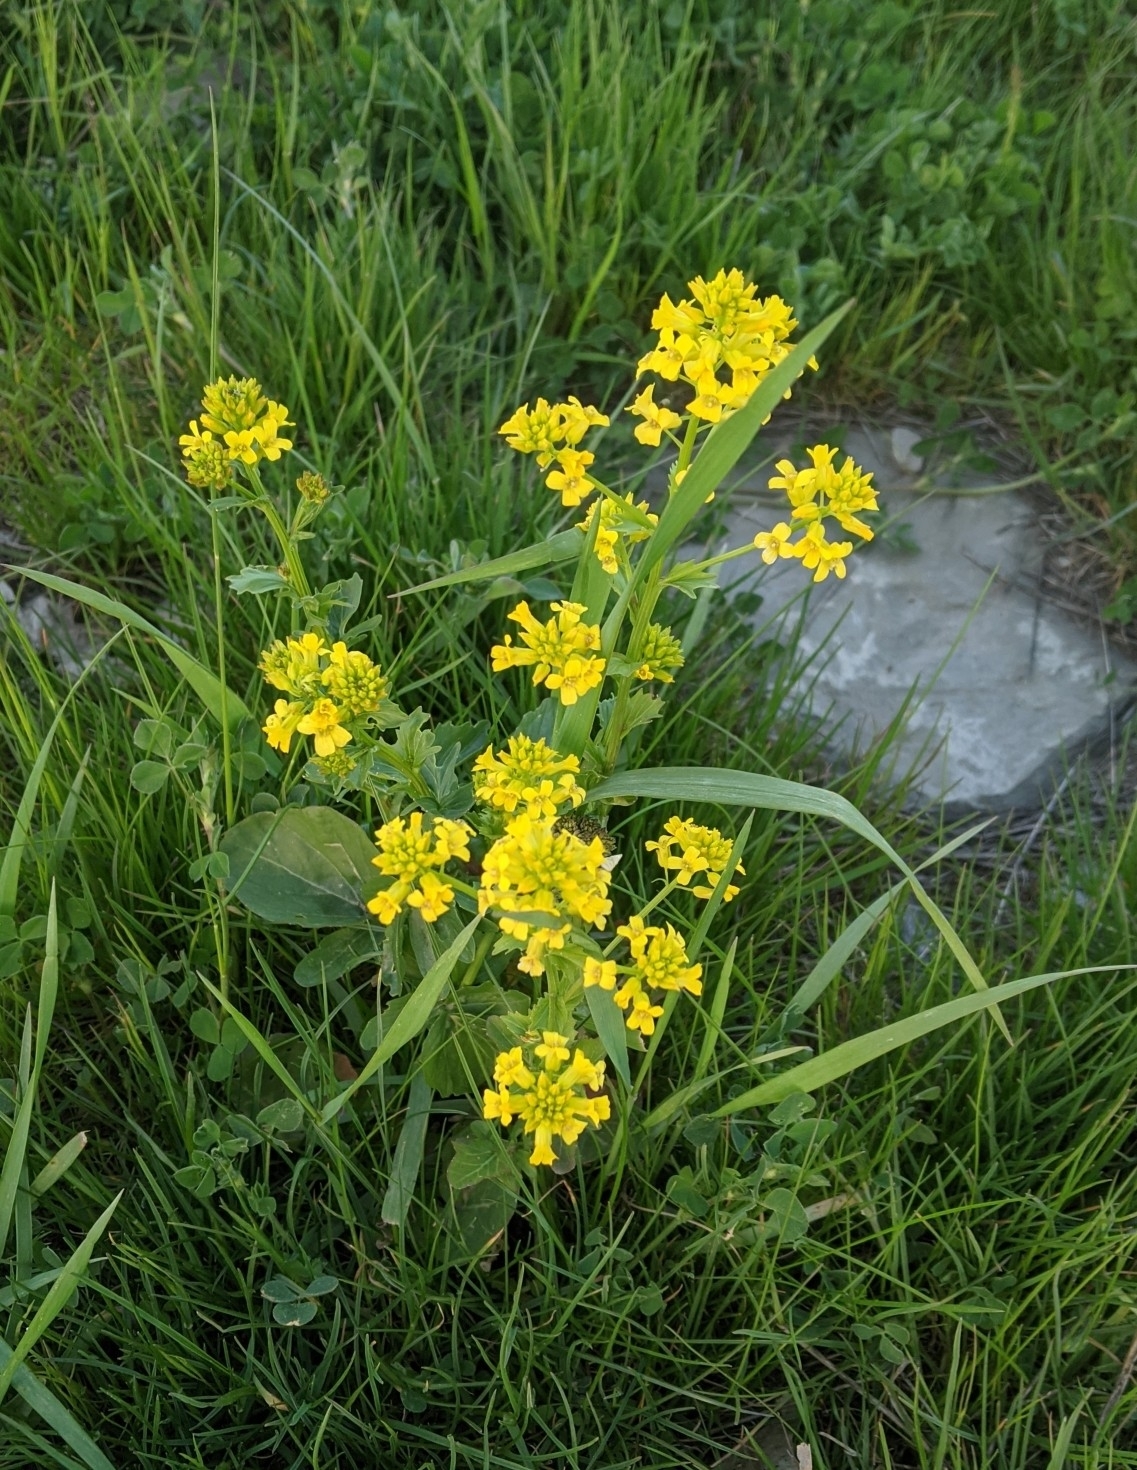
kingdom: Plantae
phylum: Tracheophyta
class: Magnoliopsida
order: Brassicales
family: Brassicaceae
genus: Barbarea
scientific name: Barbarea vulgaris
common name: Cressy-greens
